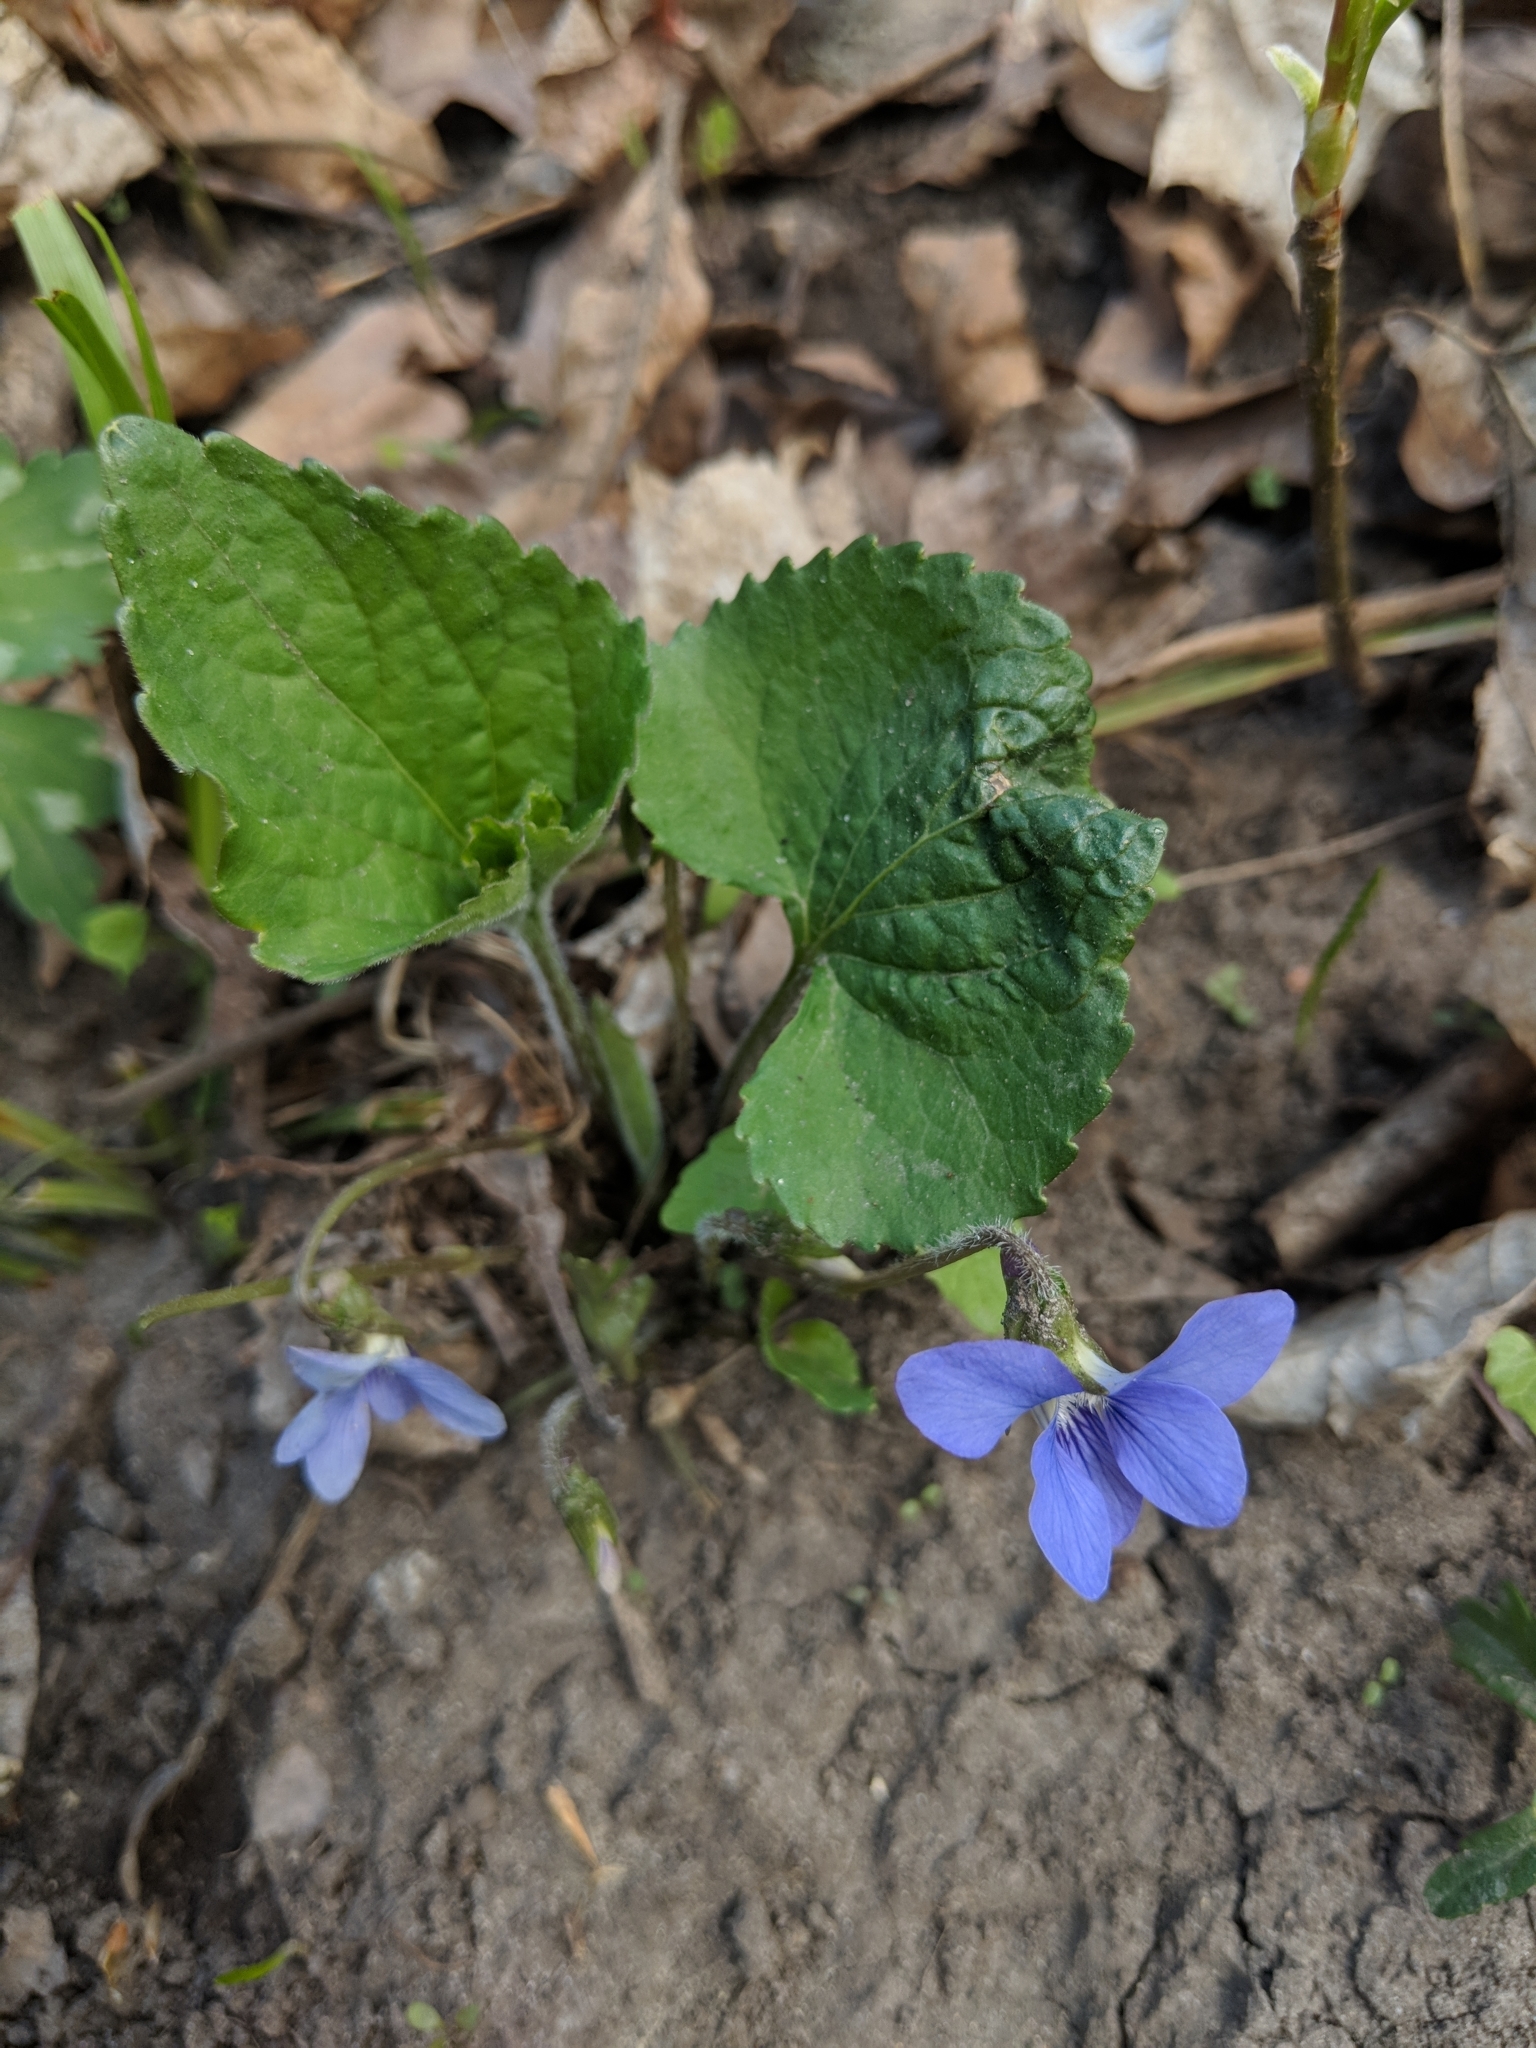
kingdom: Plantae
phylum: Tracheophyta
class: Magnoliopsida
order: Malpighiales
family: Violaceae
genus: Viola
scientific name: Viola sororia
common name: Dooryard violet
